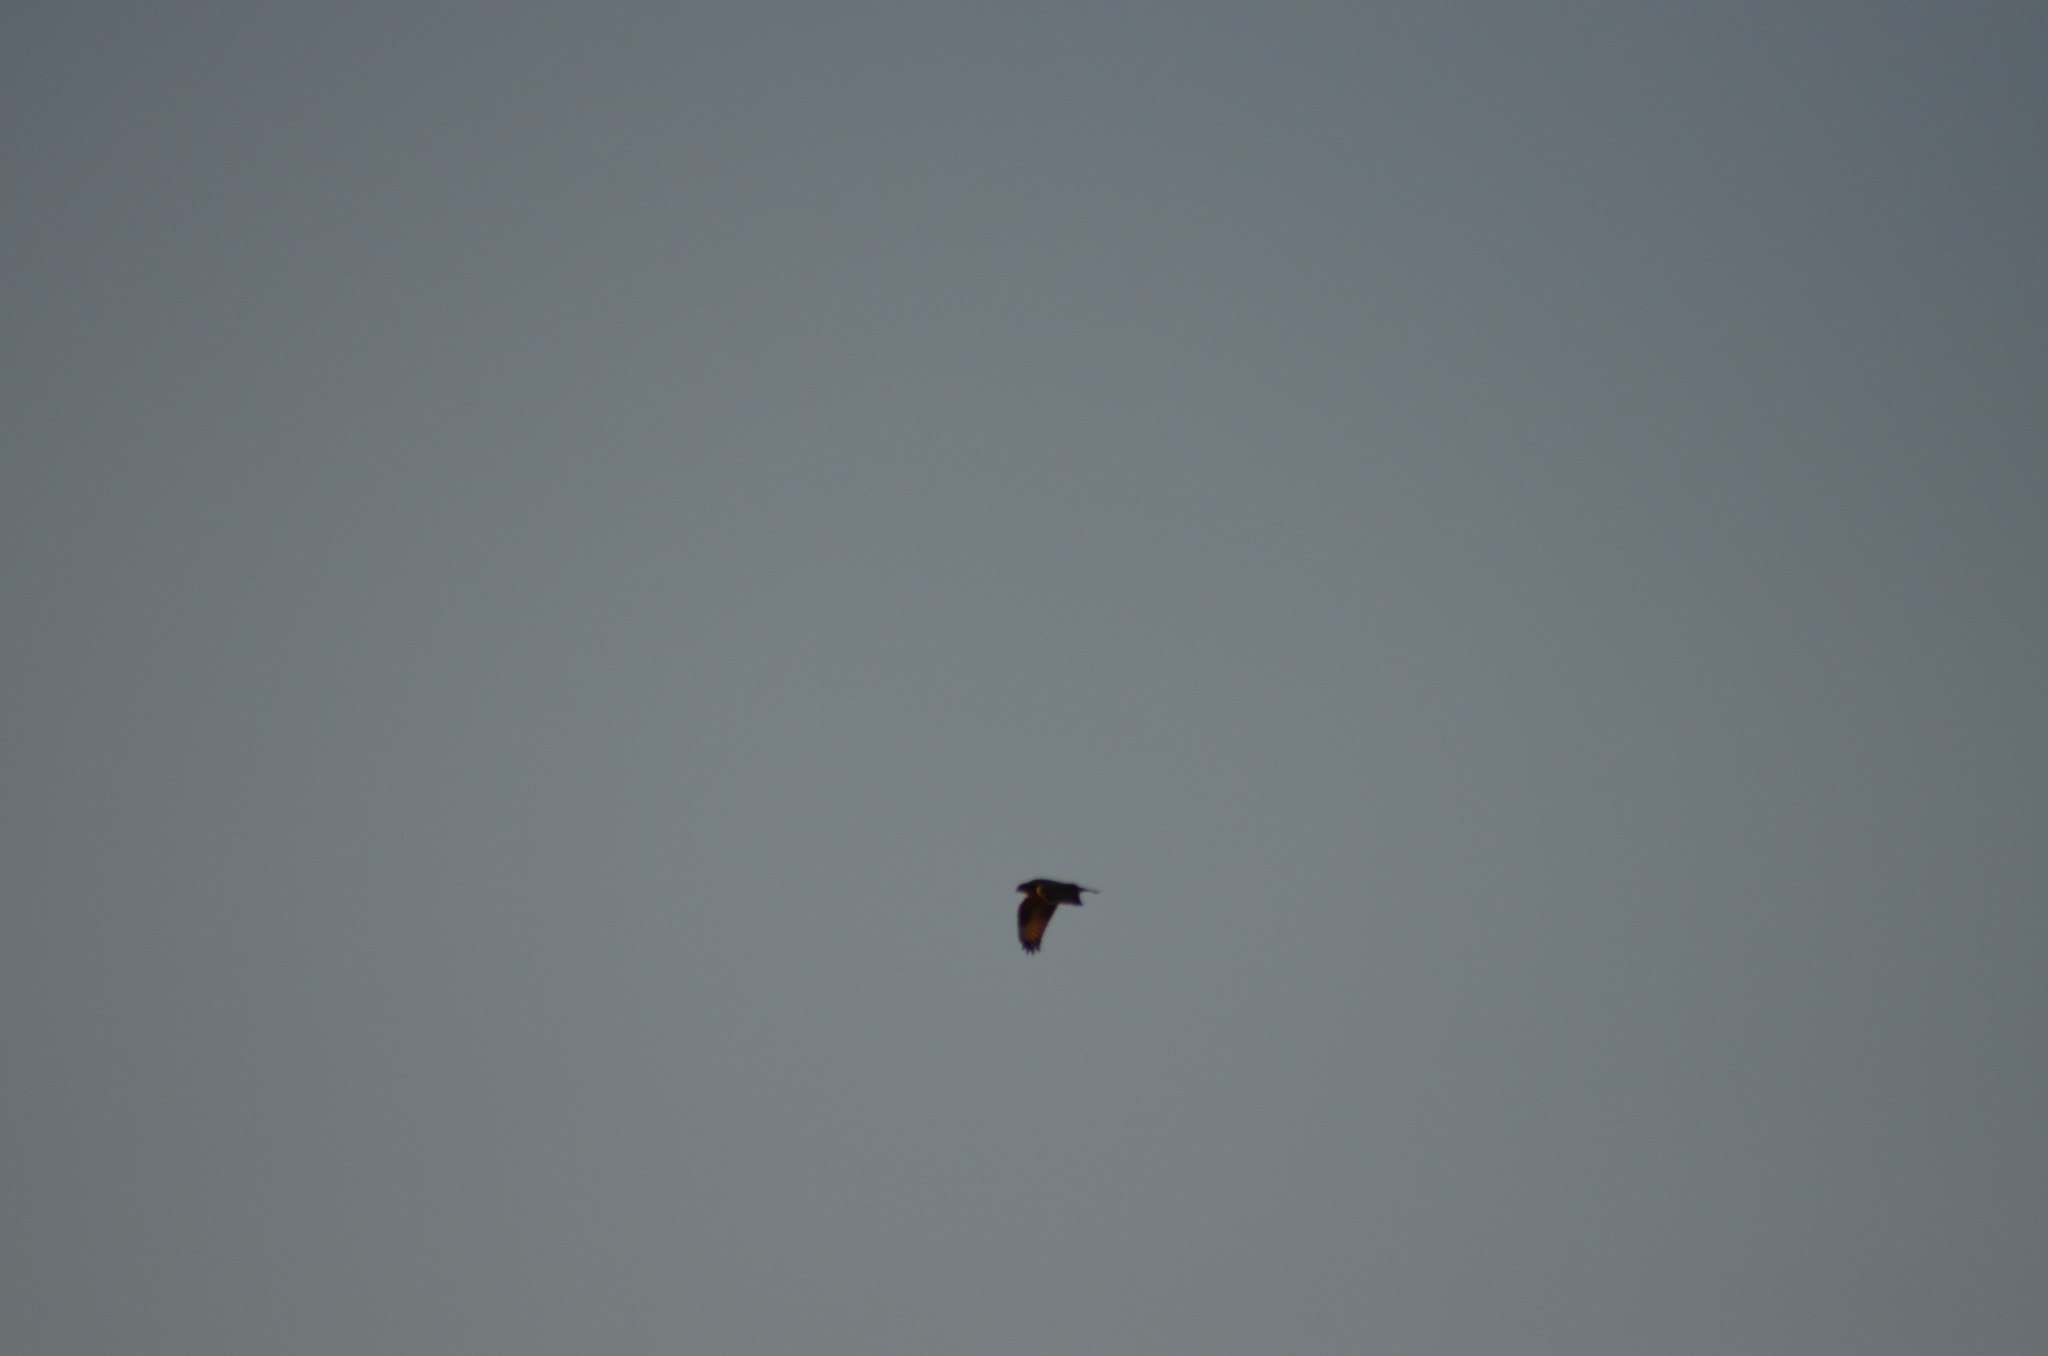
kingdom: Animalia
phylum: Chordata
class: Aves
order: Accipitriformes
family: Accipitridae
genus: Pernis
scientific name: Pernis apivorus
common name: European honey buzzard
